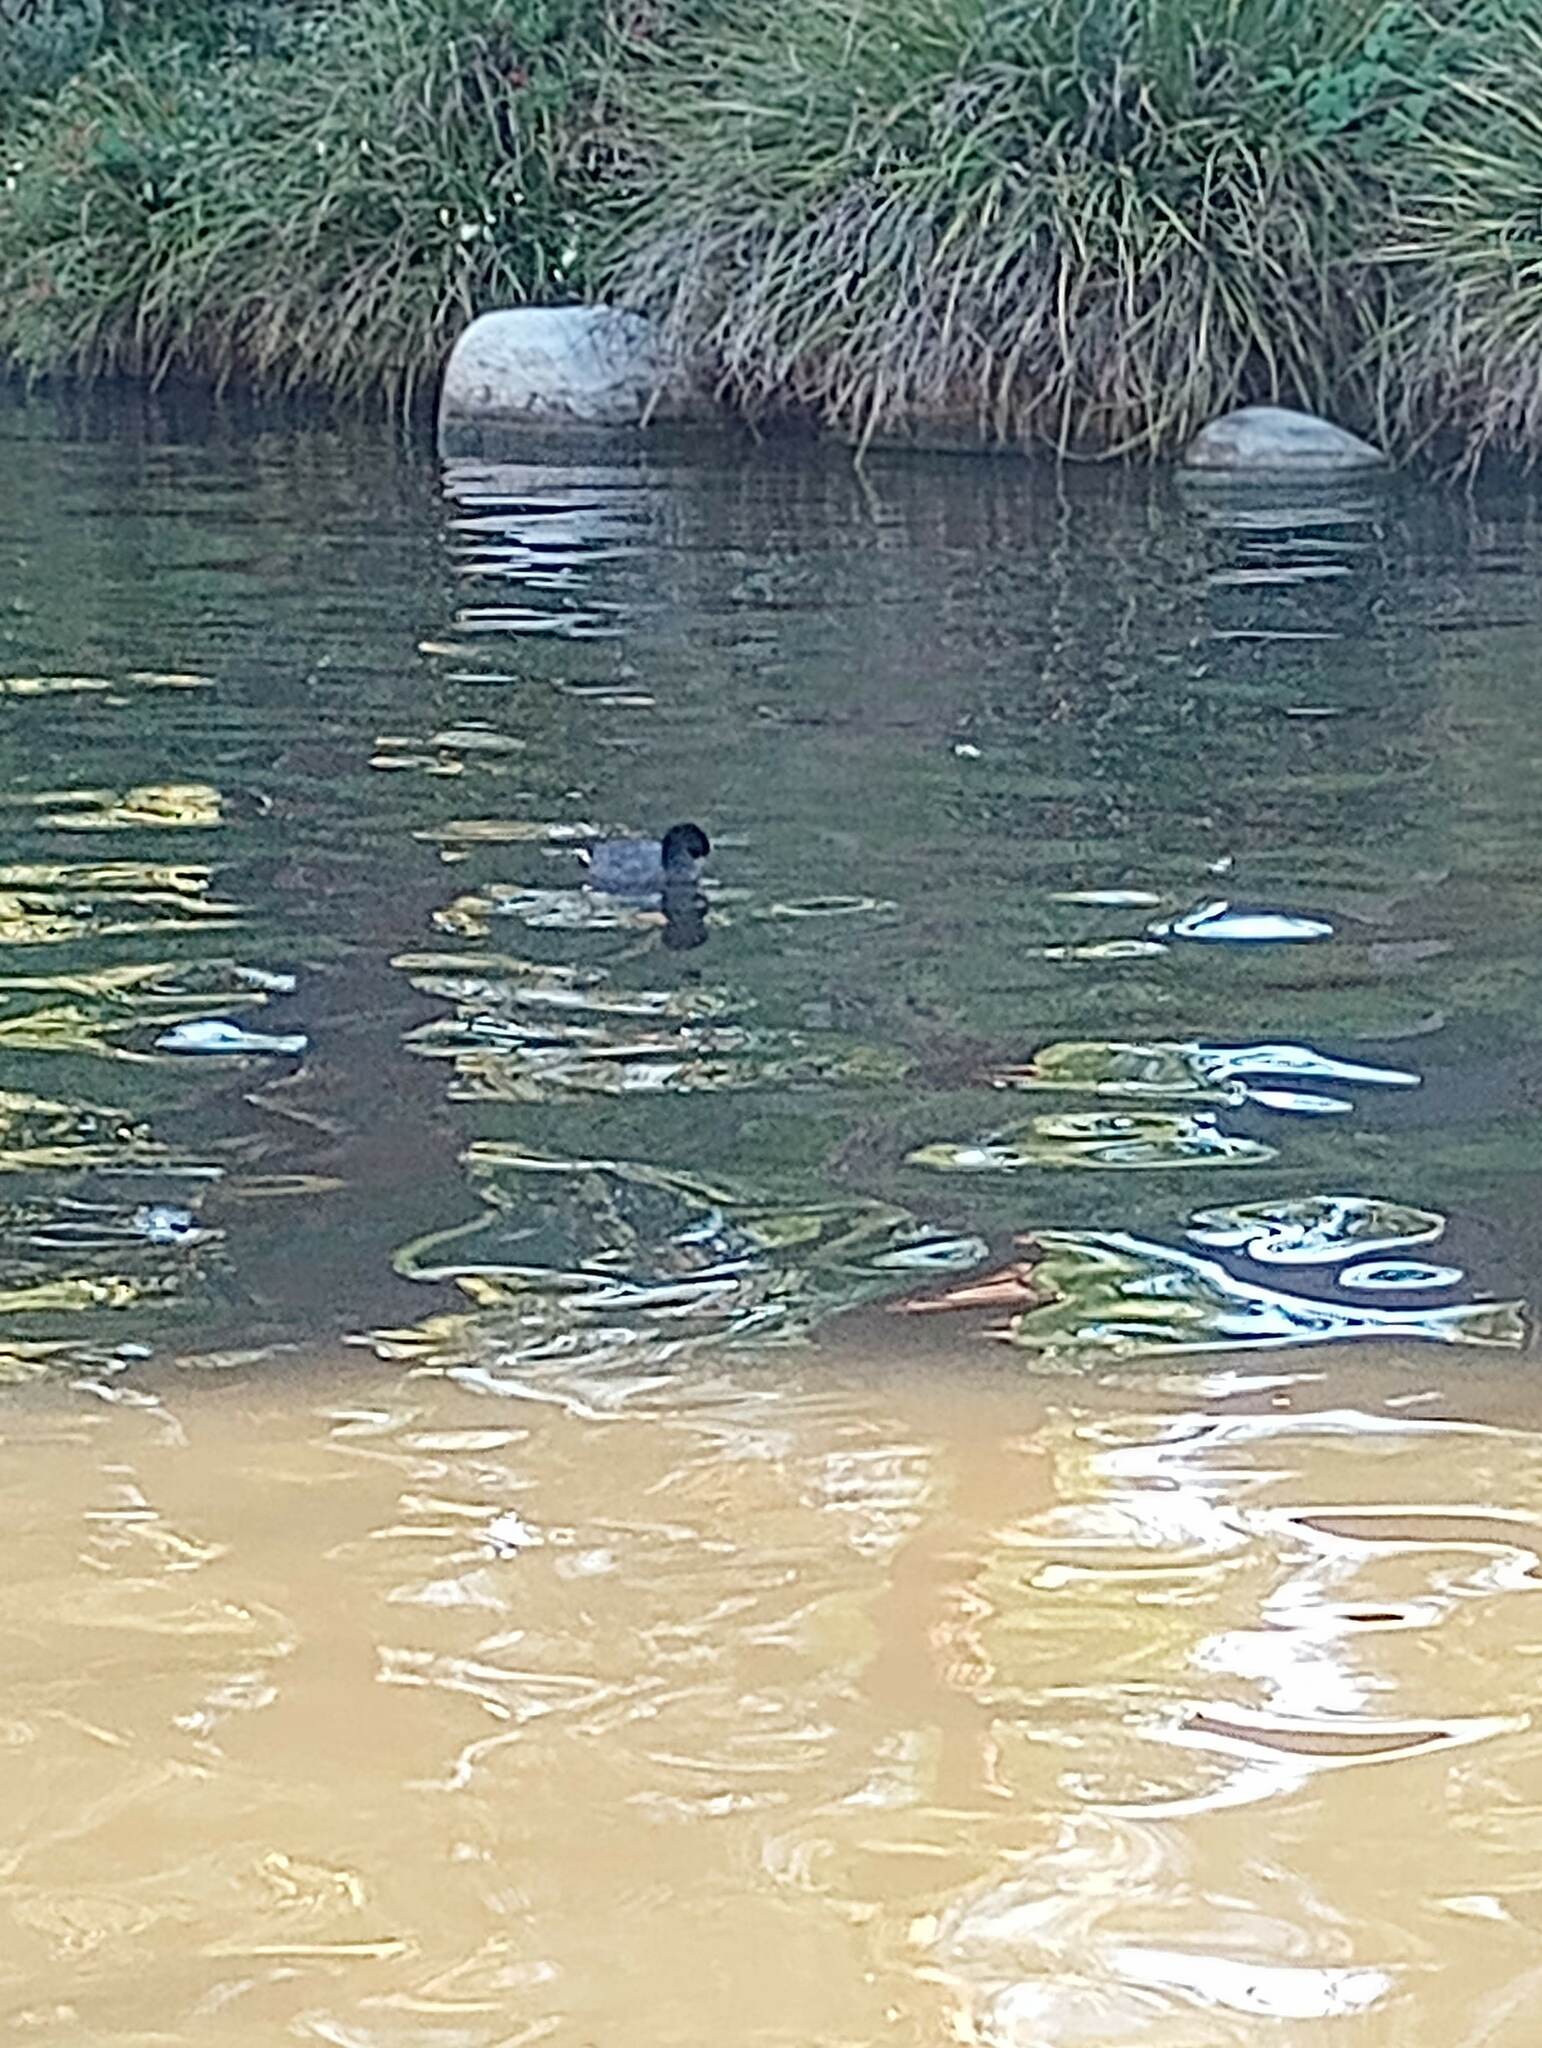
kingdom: Animalia
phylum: Chordata
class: Aves
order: Gruiformes
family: Rallidae
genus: Fulica
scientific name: Fulica americana
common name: American coot
